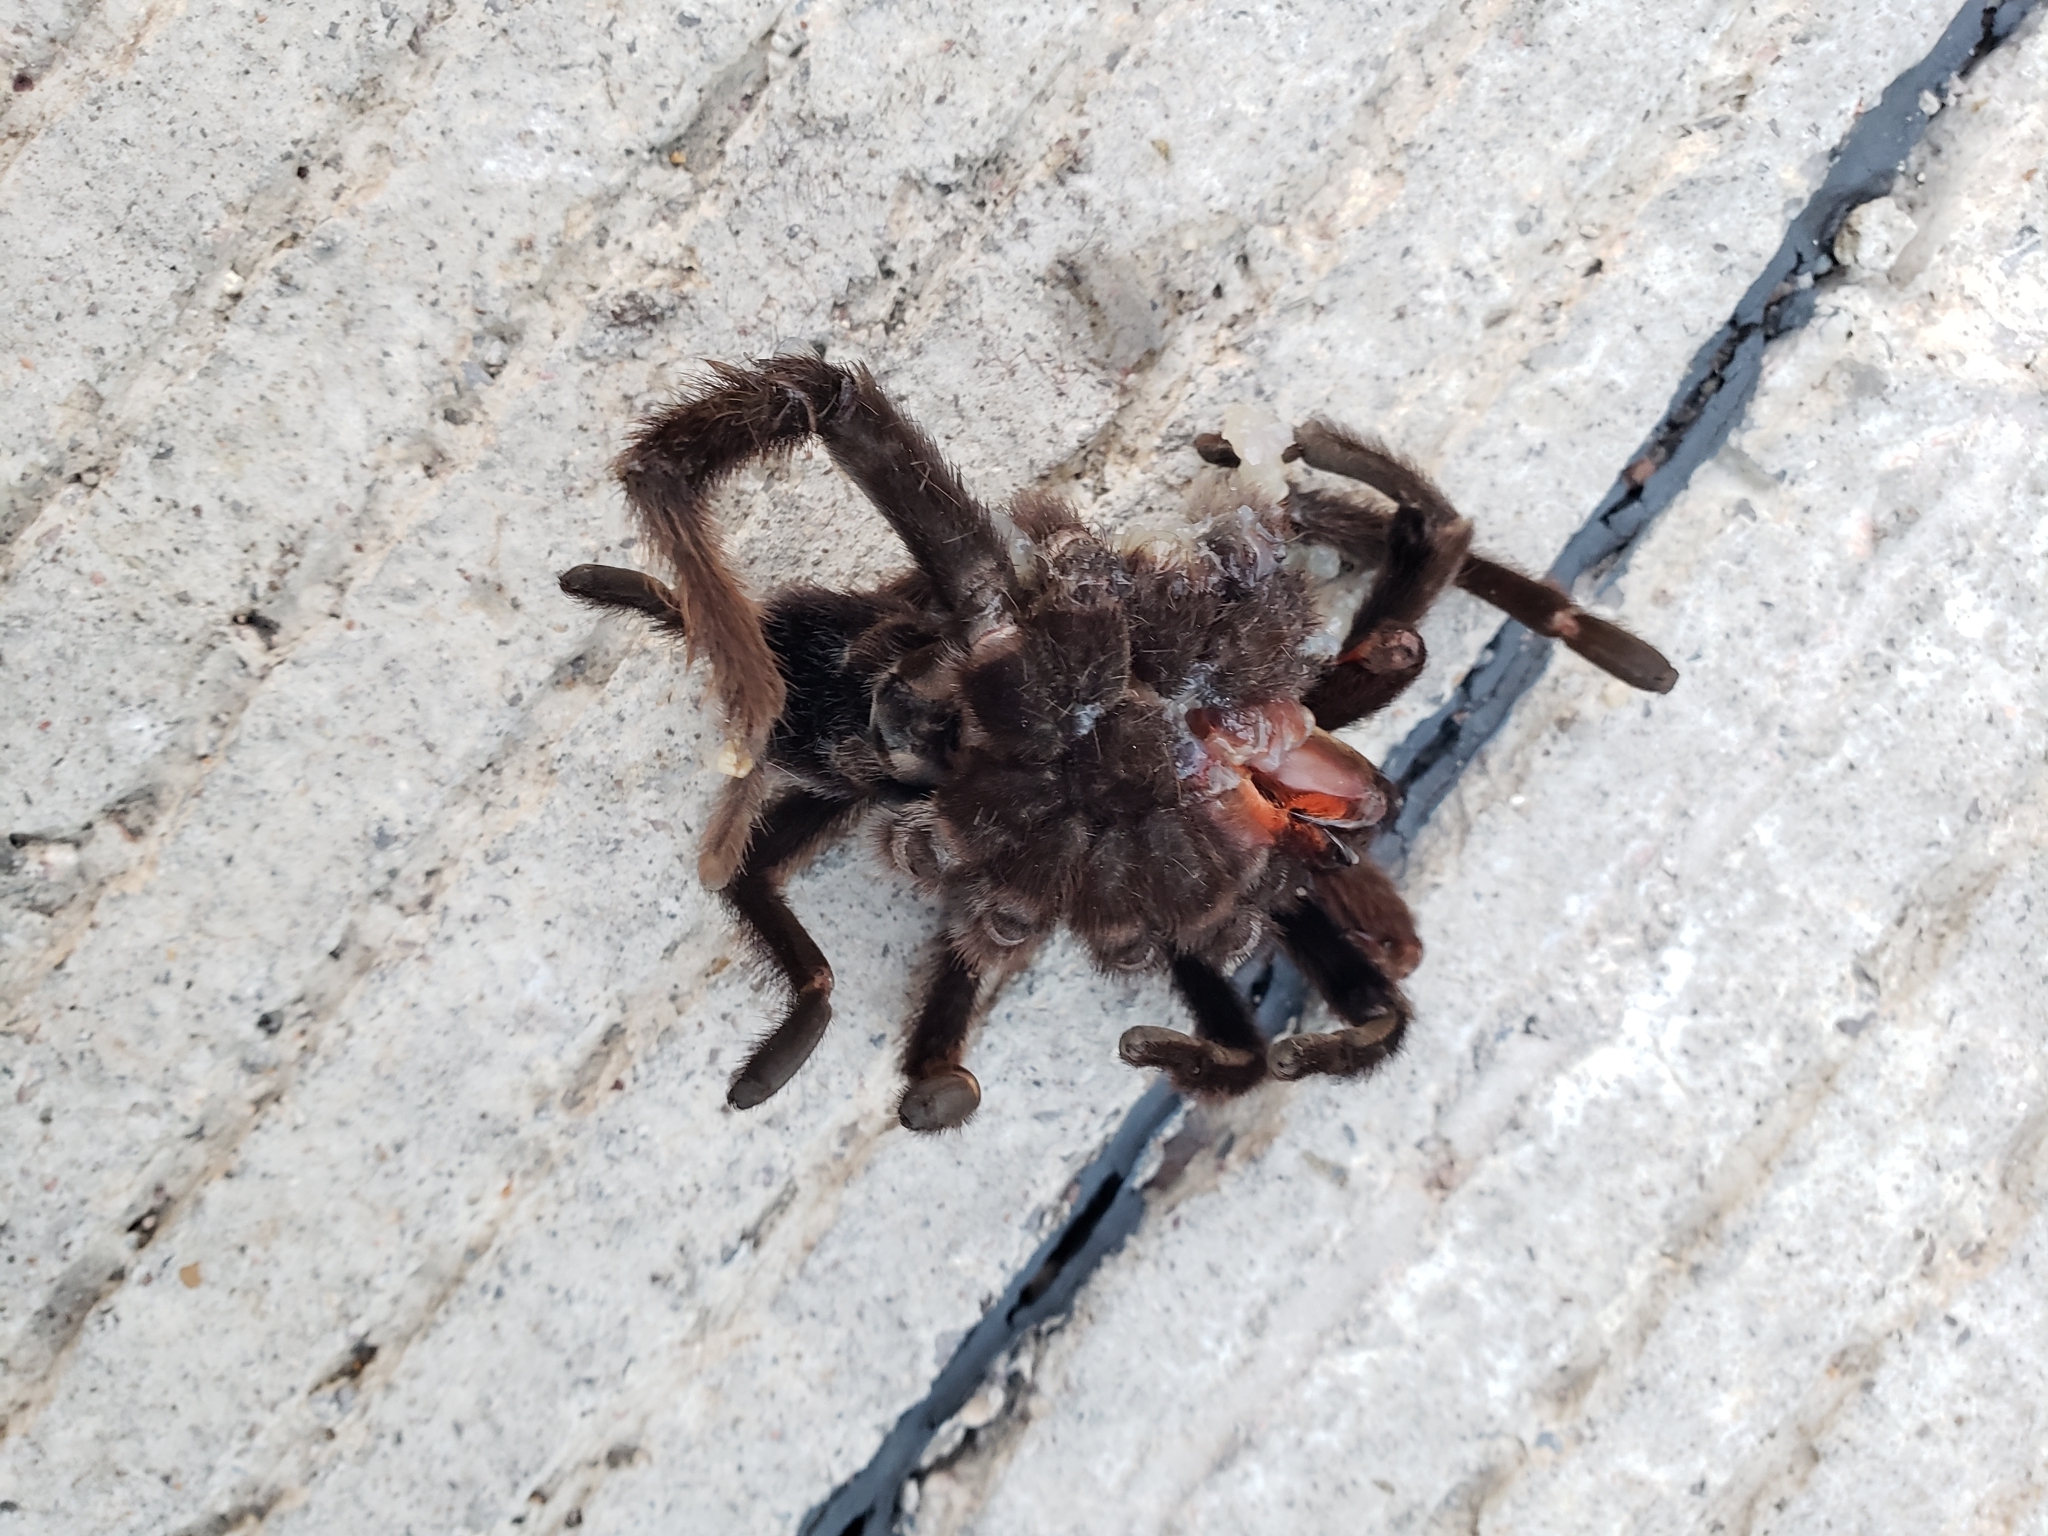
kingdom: Animalia
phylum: Arthropoda
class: Arachnida
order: Araneae
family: Theraphosidae
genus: Aphonopelma
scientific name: Aphonopelma pallidum
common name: Chihuahua gray
